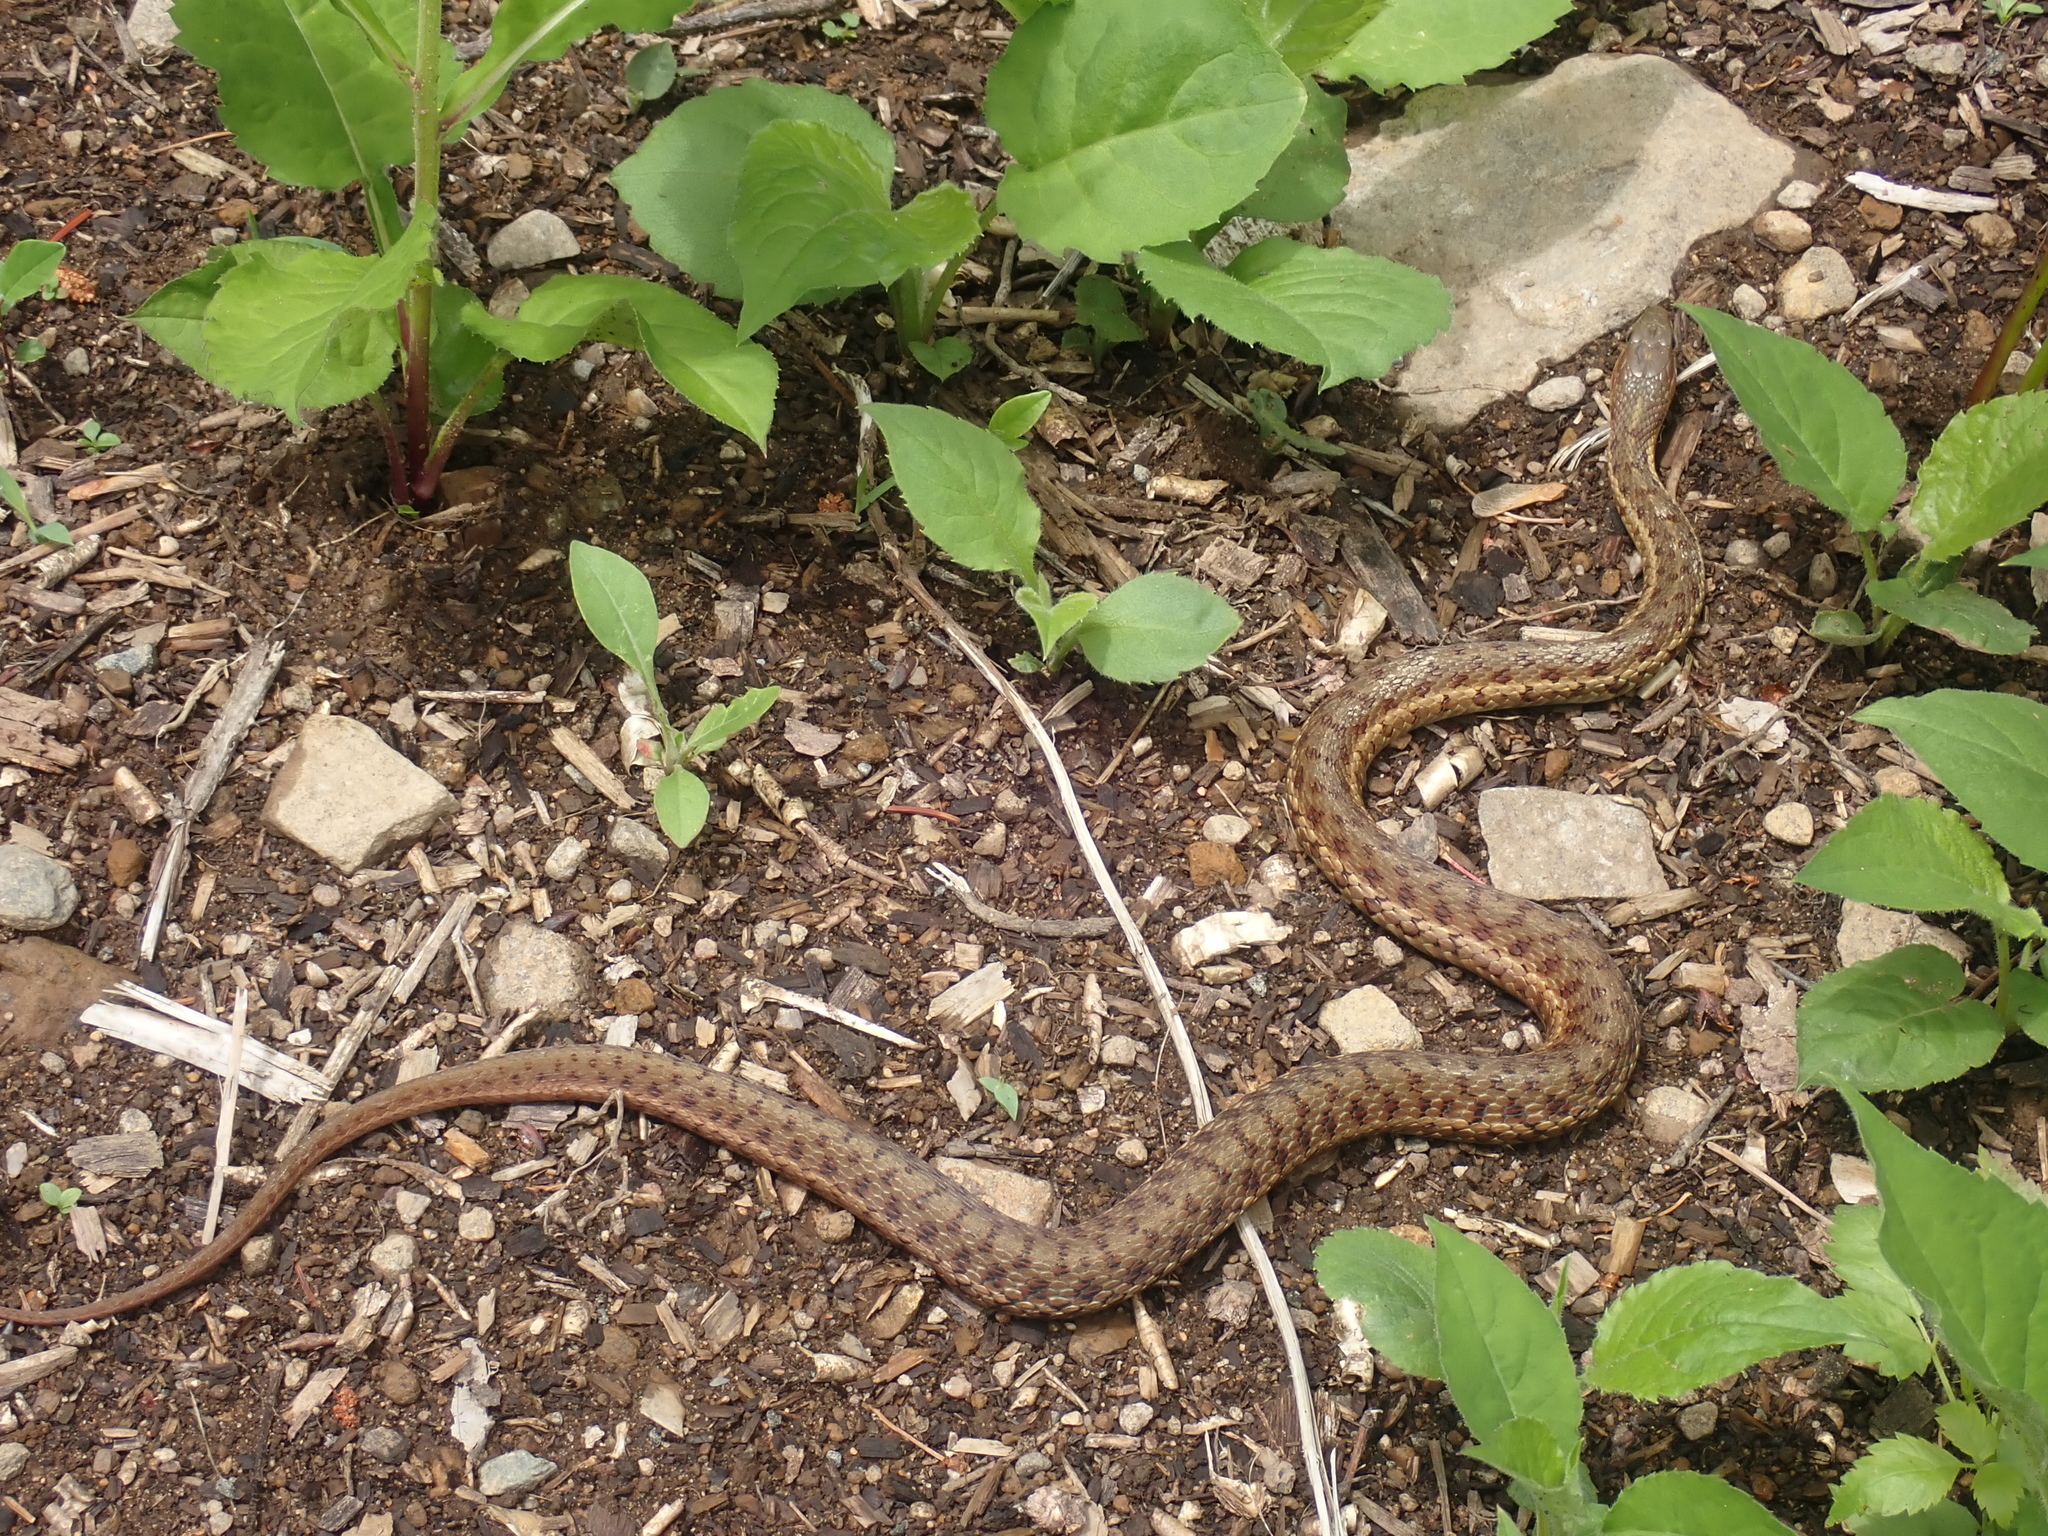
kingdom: Animalia
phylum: Chordata
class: Squamata
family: Colubridae
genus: Thamnophis
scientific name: Thamnophis sirtalis
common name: Common garter snake
